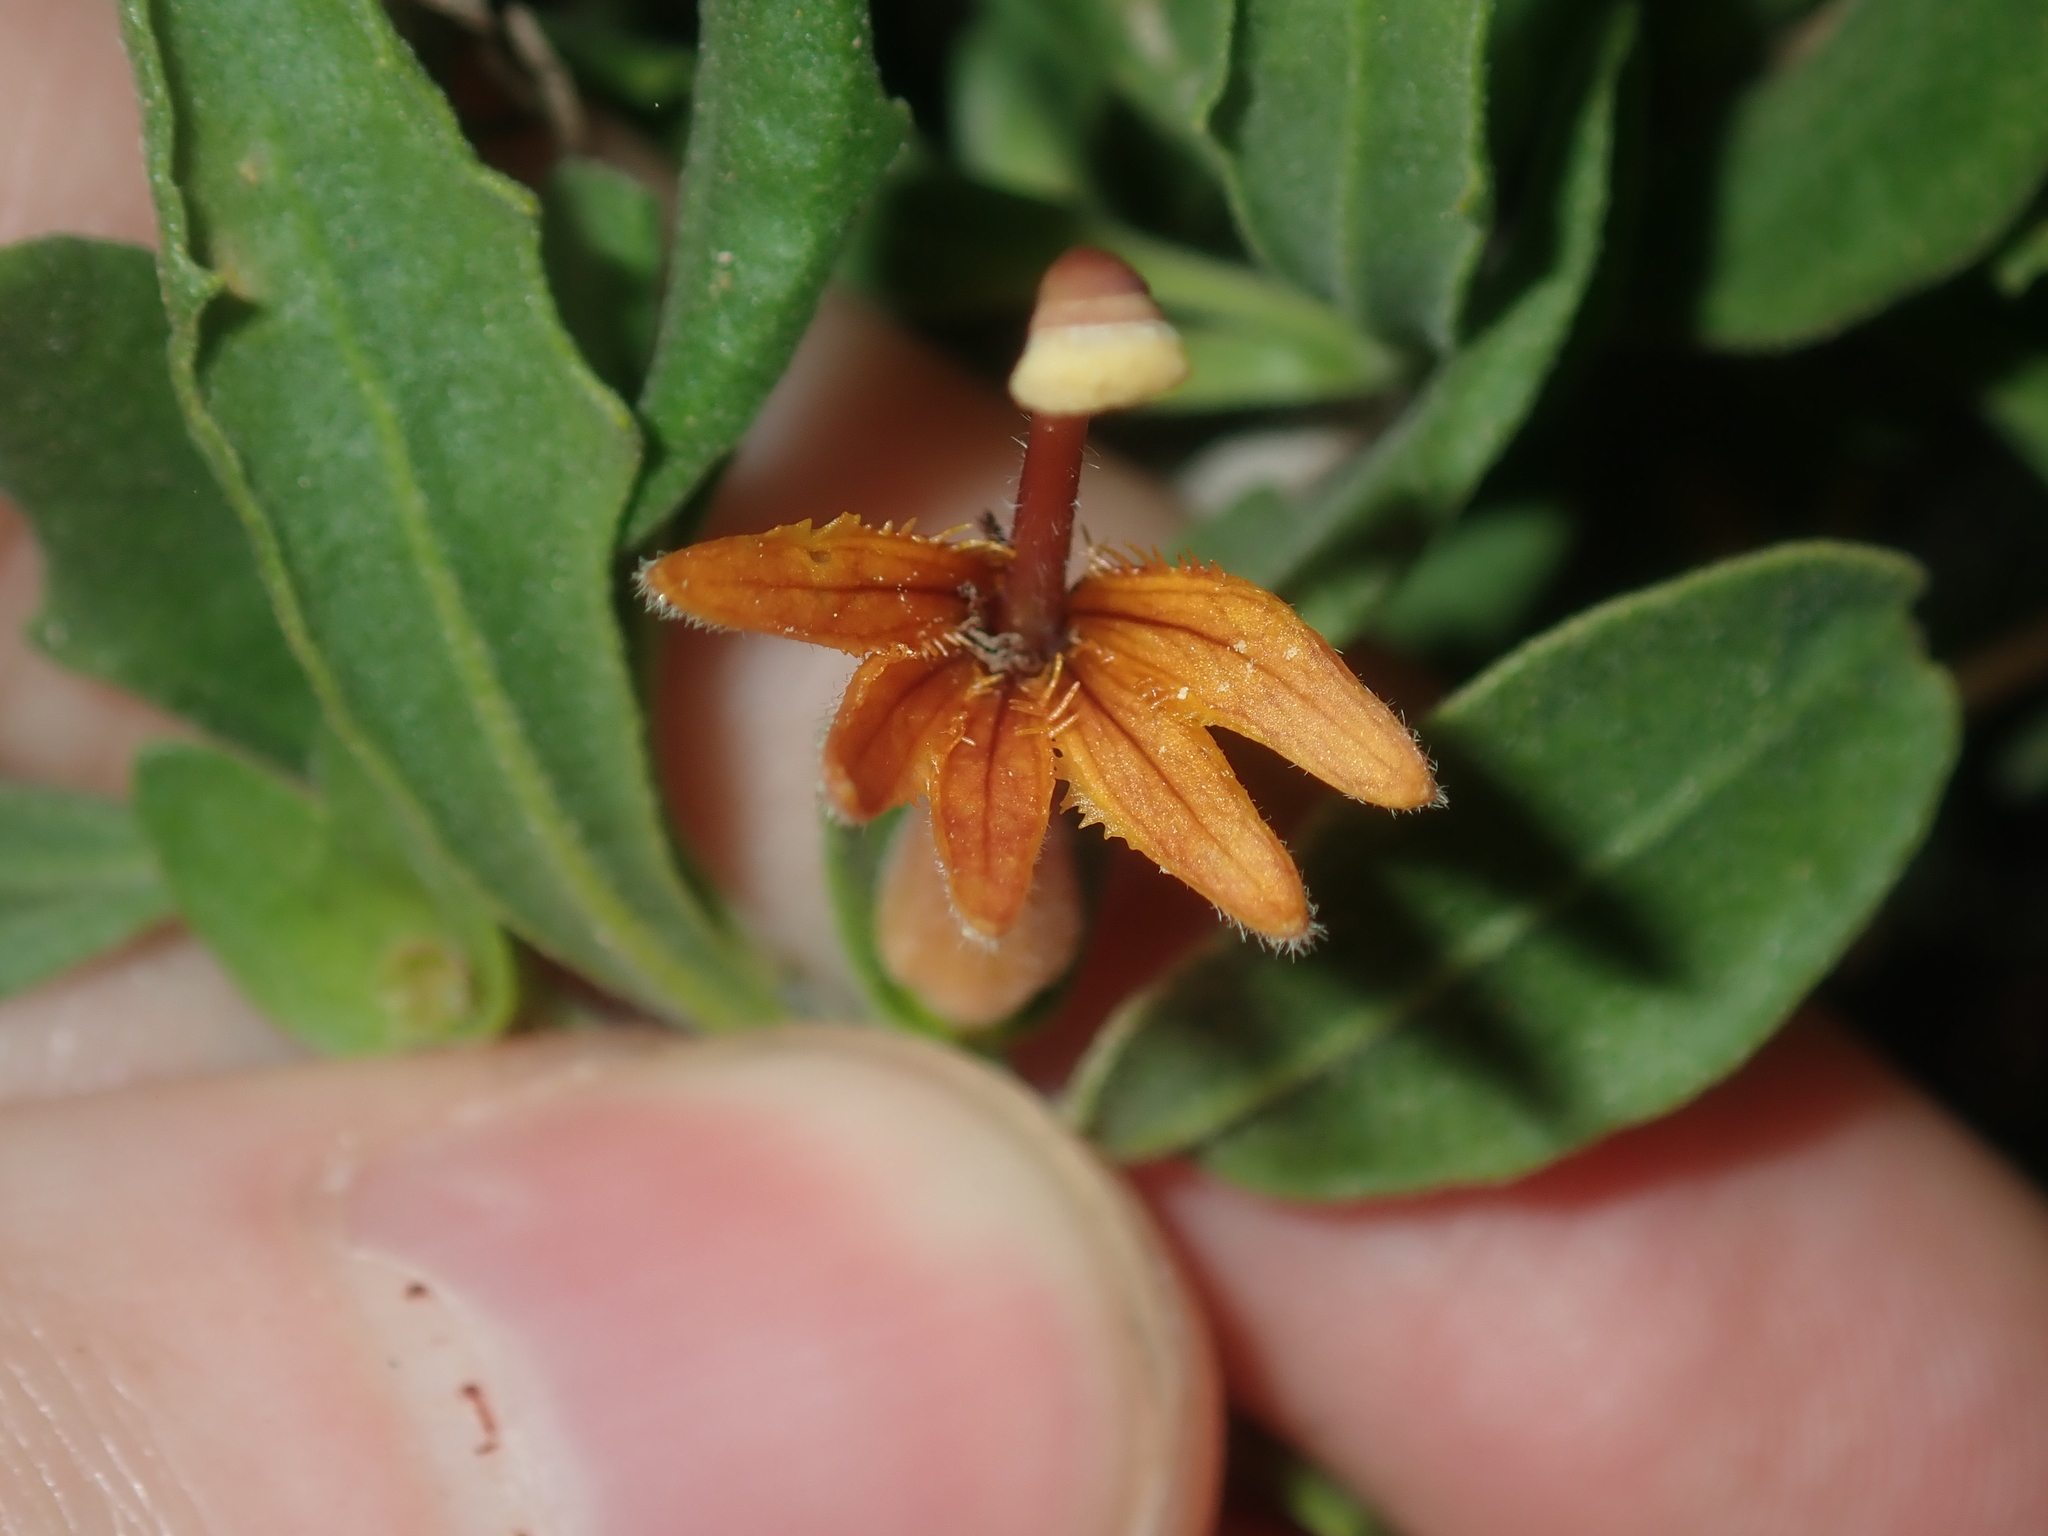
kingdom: Plantae
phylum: Tracheophyta
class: Magnoliopsida
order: Asterales
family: Goodeniaceae
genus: Scaevola
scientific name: Scaevola tomentosa
